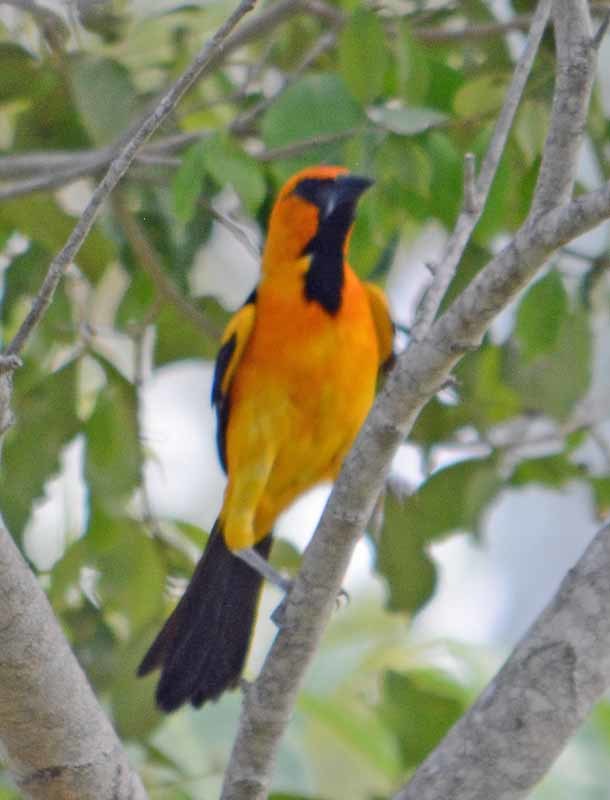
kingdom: Animalia
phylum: Chordata
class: Aves
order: Passeriformes
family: Icteridae
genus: Icterus
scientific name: Icterus gularis
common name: Altamira oriole
